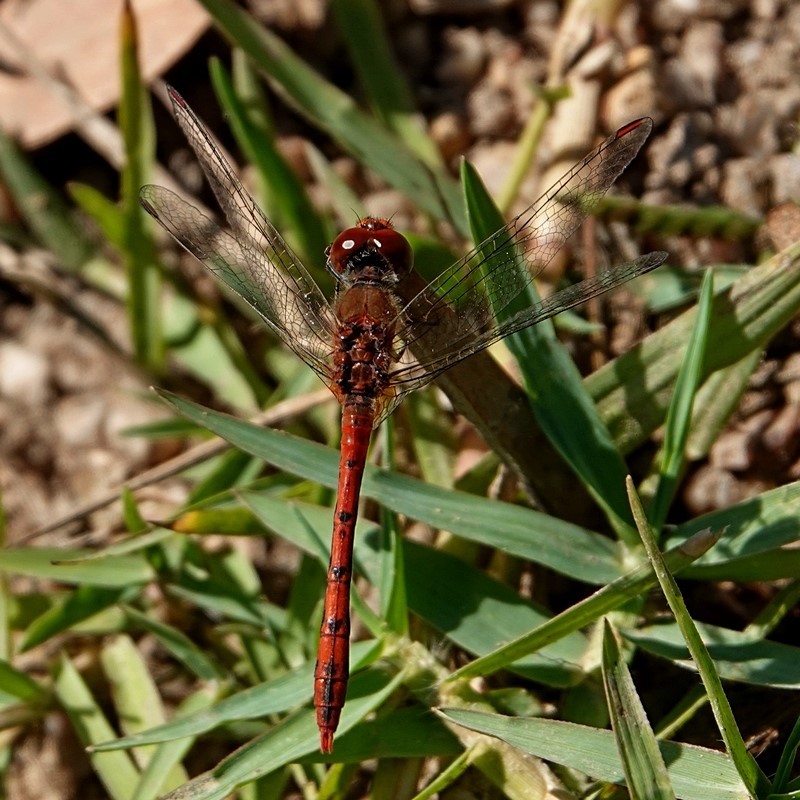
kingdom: Animalia
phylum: Arthropoda
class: Insecta
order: Odonata
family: Libellulidae
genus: Diplacodes
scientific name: Diplacodes bipunctata
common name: Red percher dragonfly
